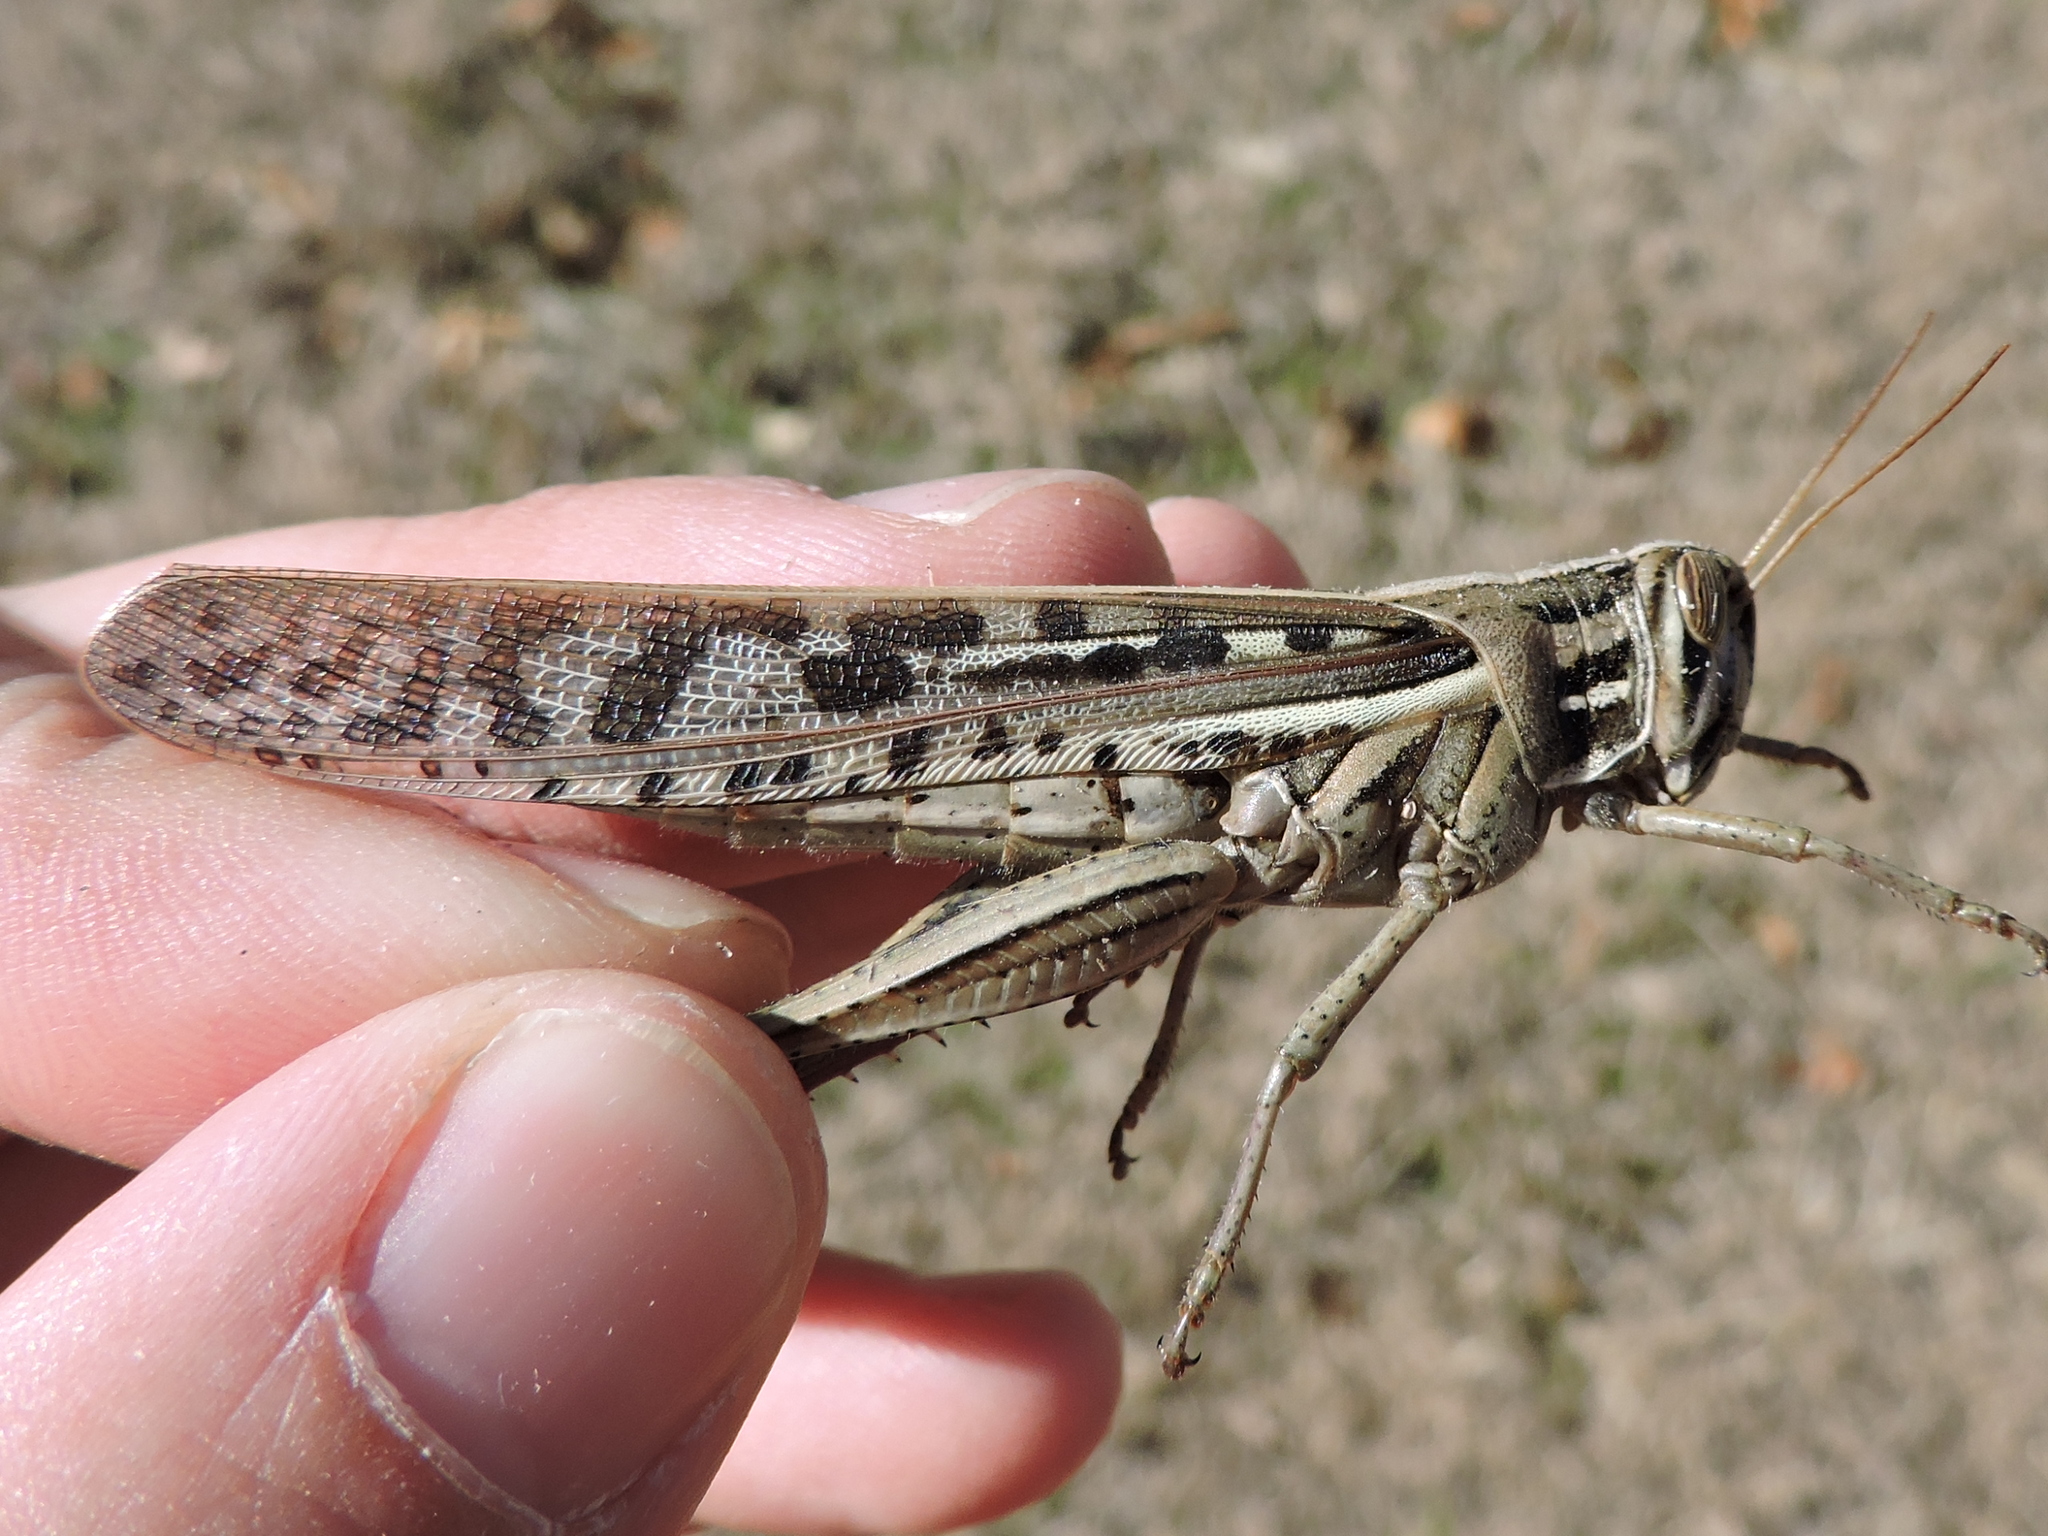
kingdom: Animalia
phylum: Arthropoda
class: Insecta
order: Orthoptera
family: Acrididae
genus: Schistocerca
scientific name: Schistocerca americana
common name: American bird locust
